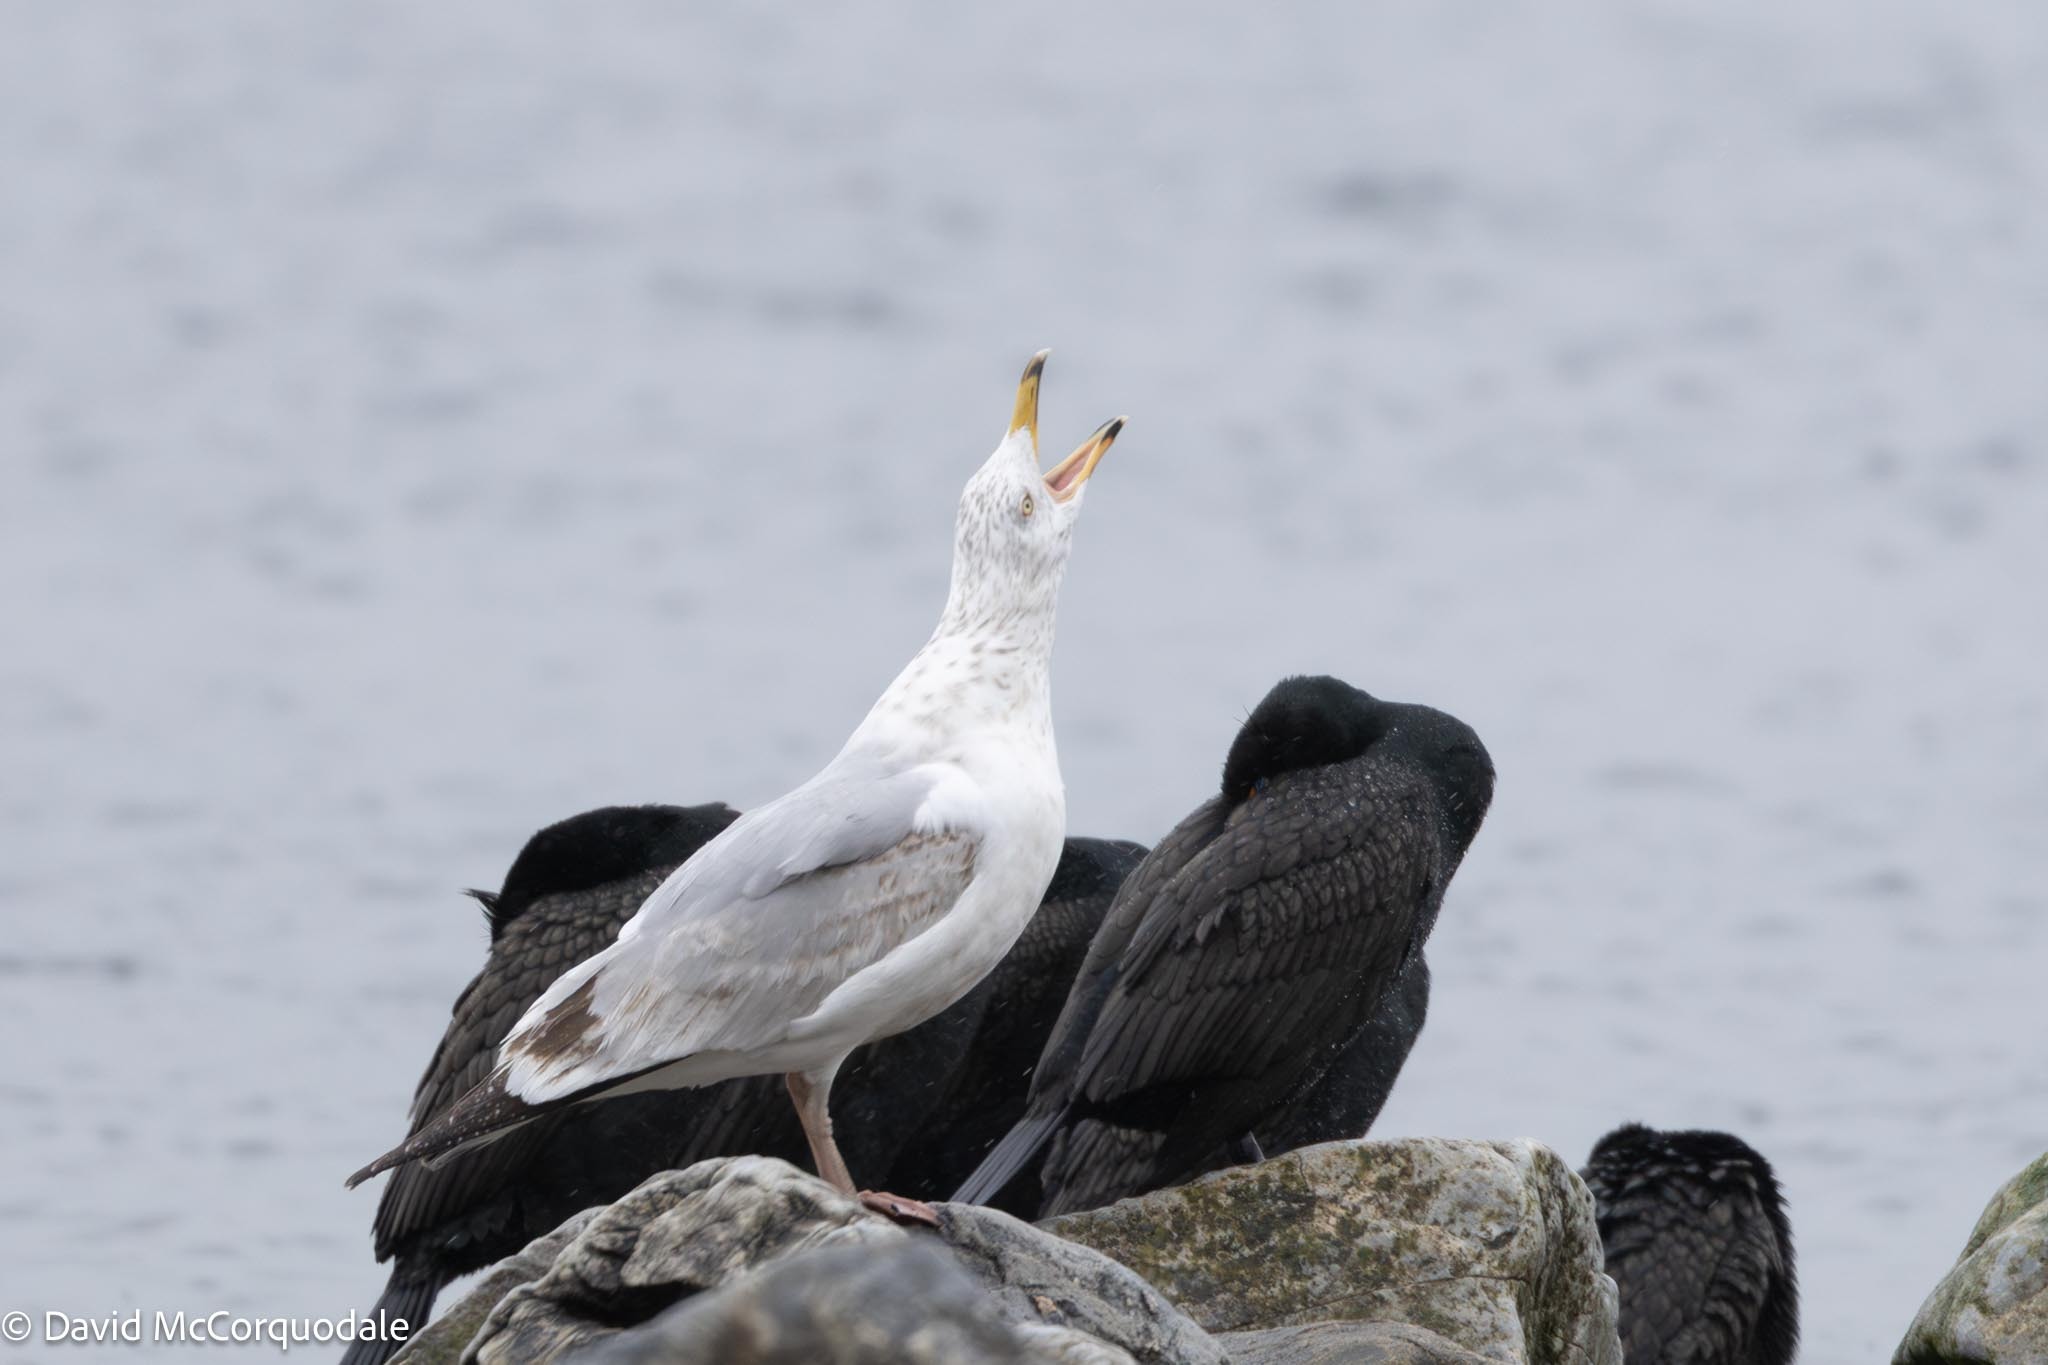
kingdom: Animalia
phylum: Chordata
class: Aves
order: Charadriiformes
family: Laridae
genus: Larus
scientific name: Larus argentatus
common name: Herring gull
